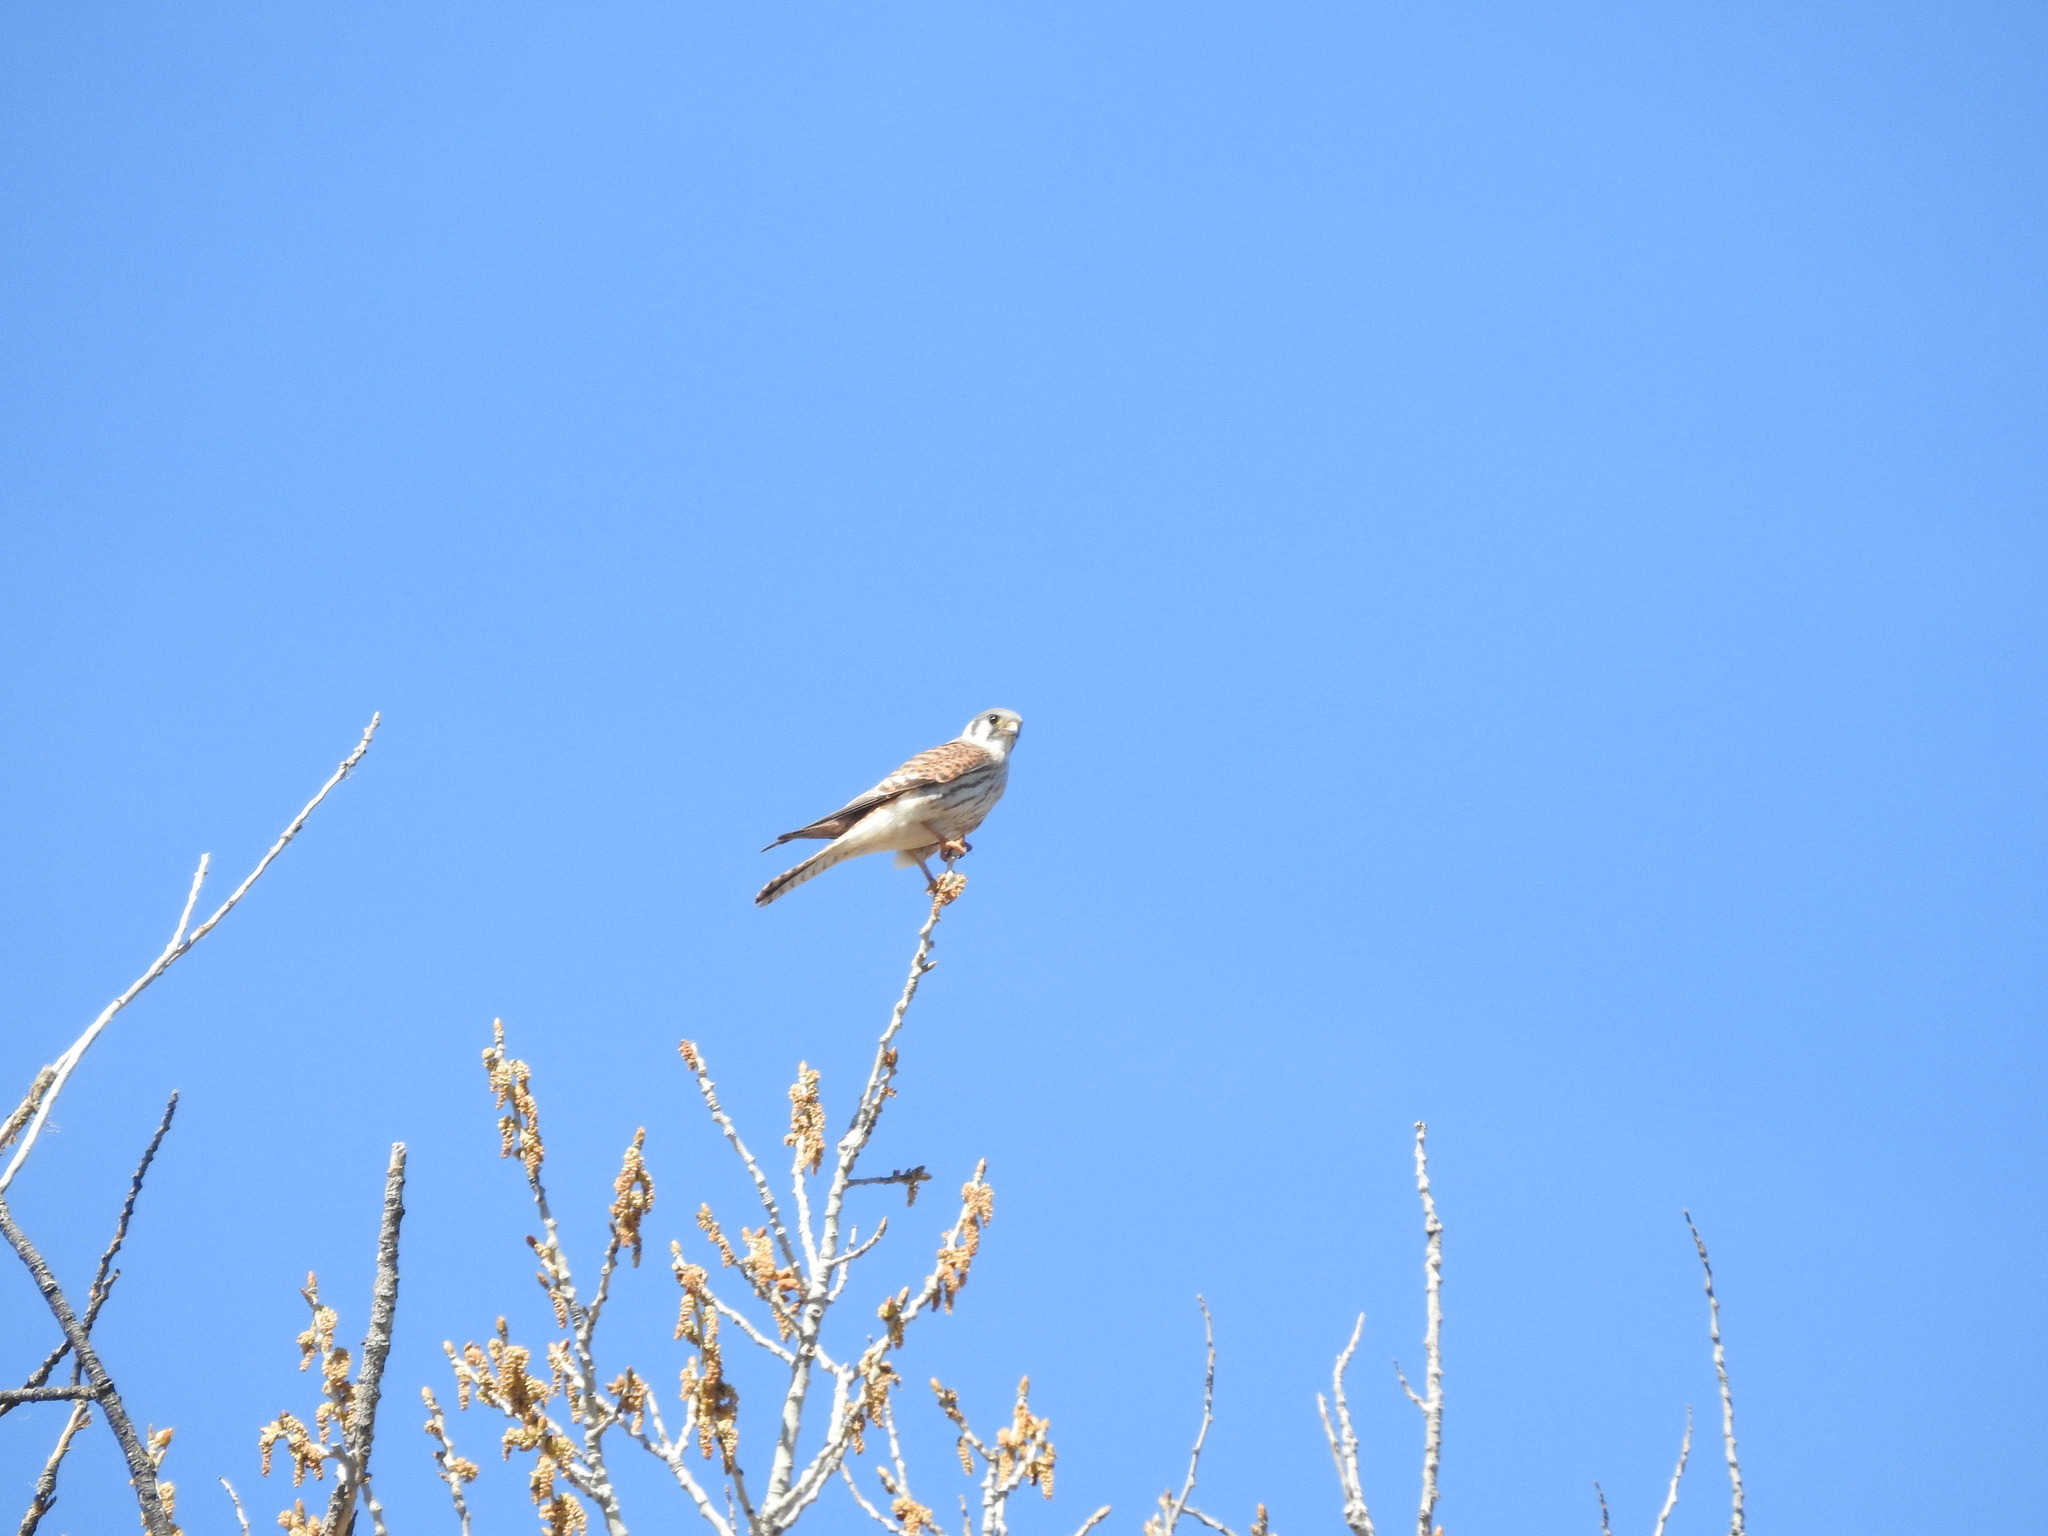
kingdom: Animalia
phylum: Chordata
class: Aves
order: Falconiformes
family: Falconidae
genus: Falco
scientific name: Falco sparverius
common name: American kestrel
